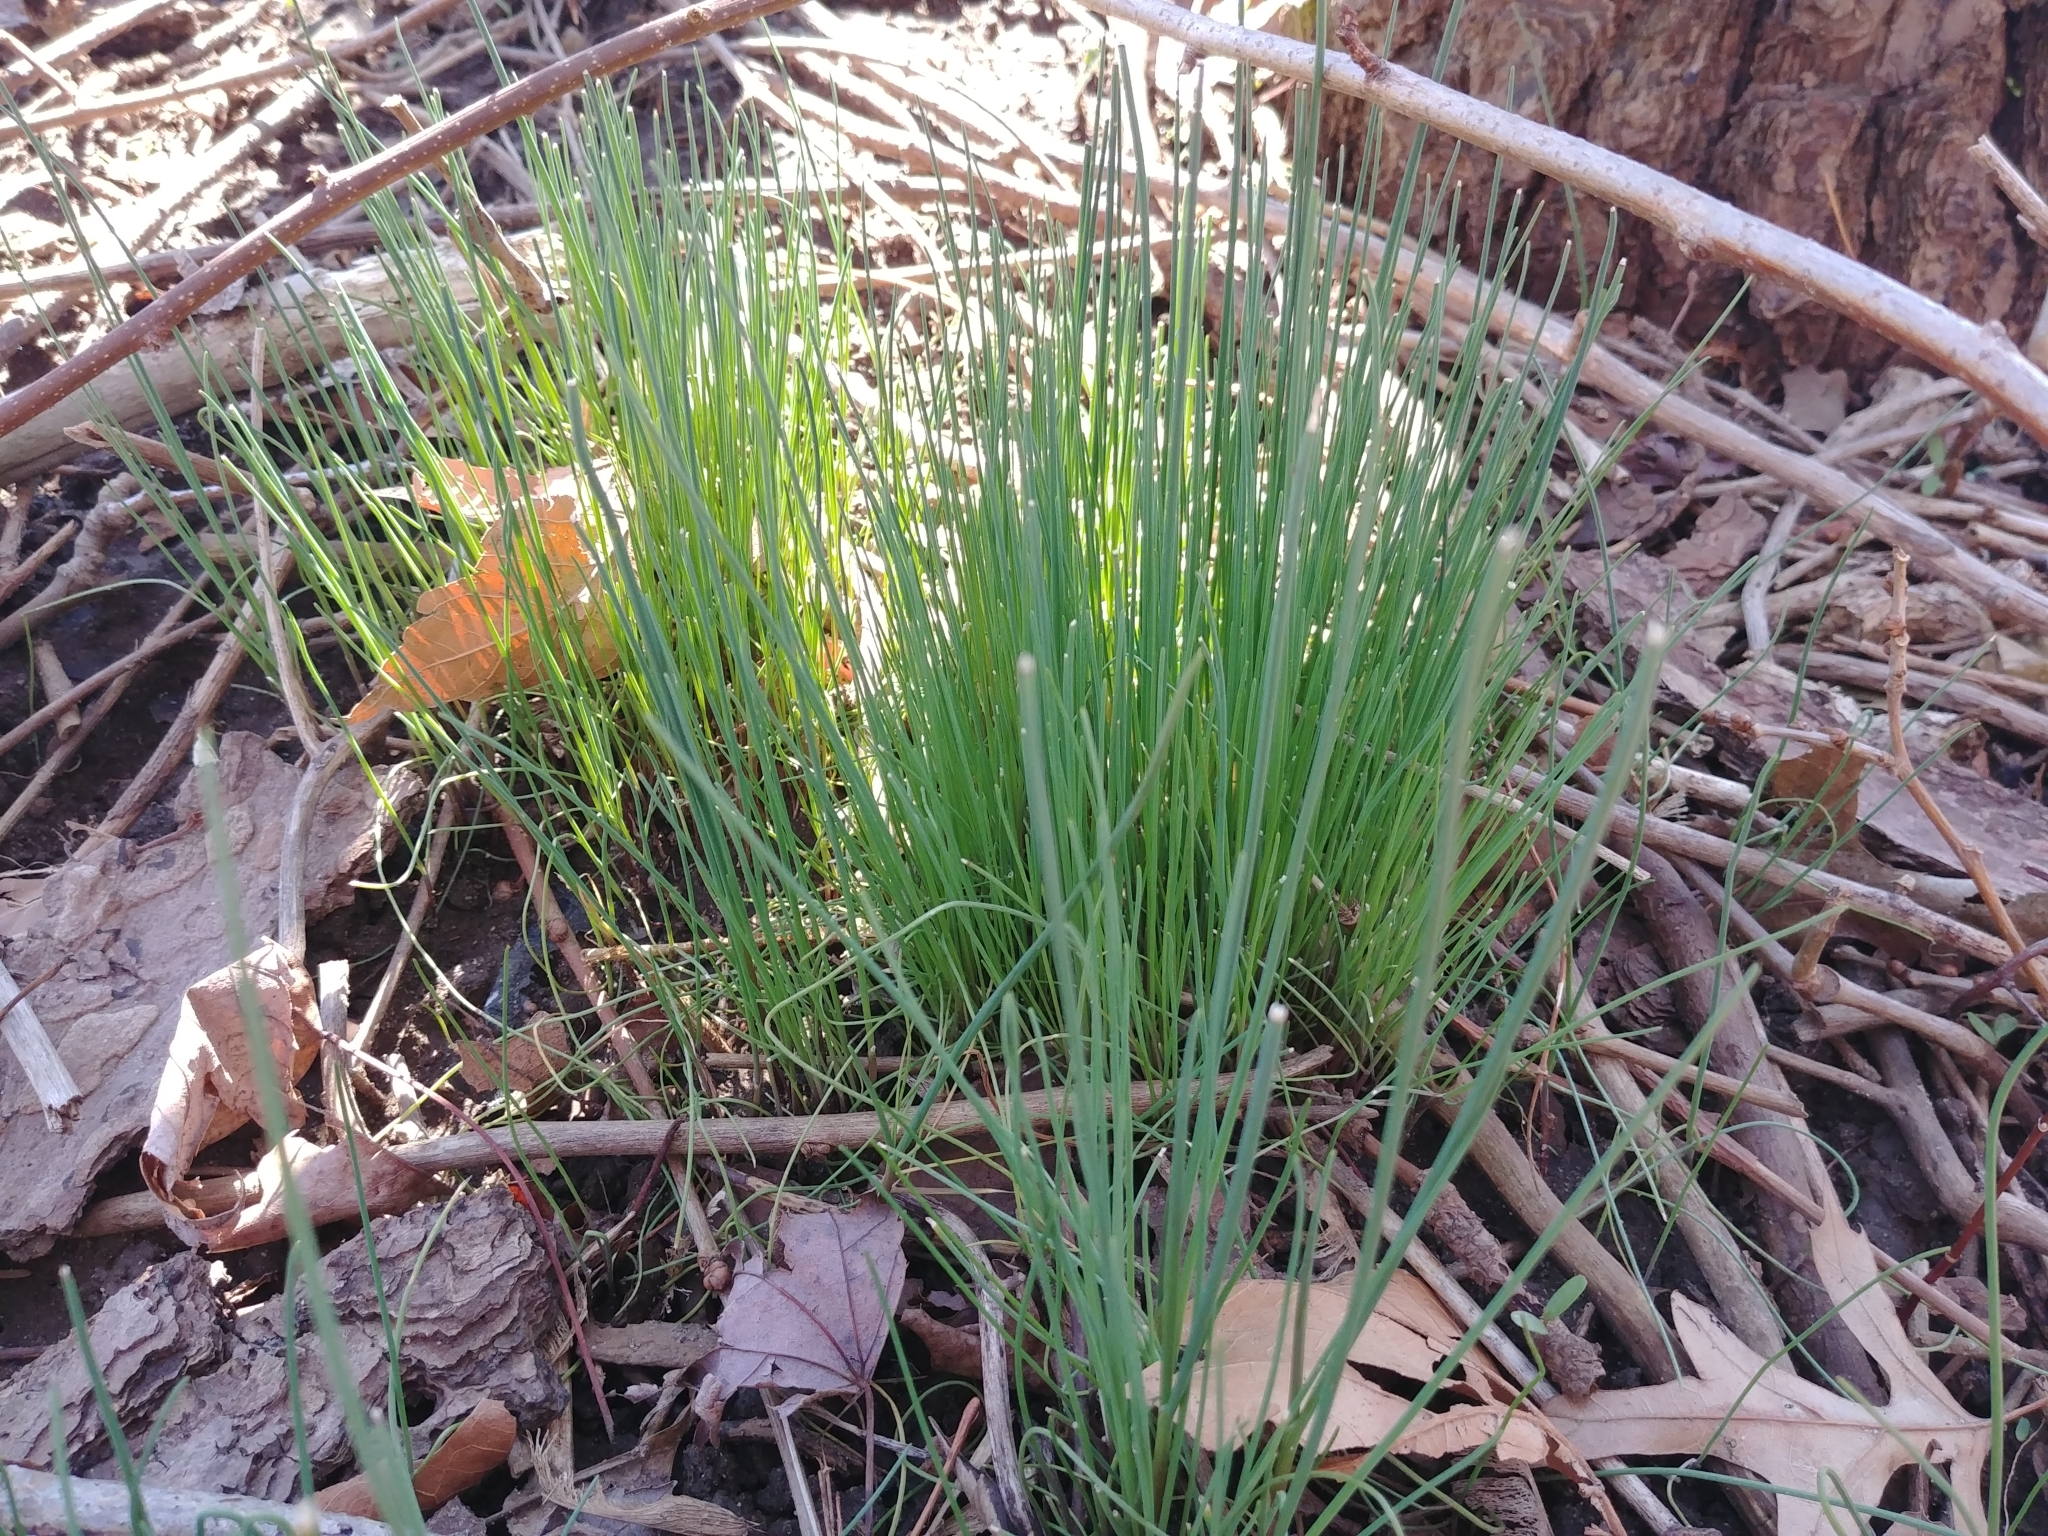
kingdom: Plantae
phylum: Tracheophyta
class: Liliopsida
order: Asparagales
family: Amaryllidaceae
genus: Allium
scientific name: Allium vineale
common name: Crow garlic
